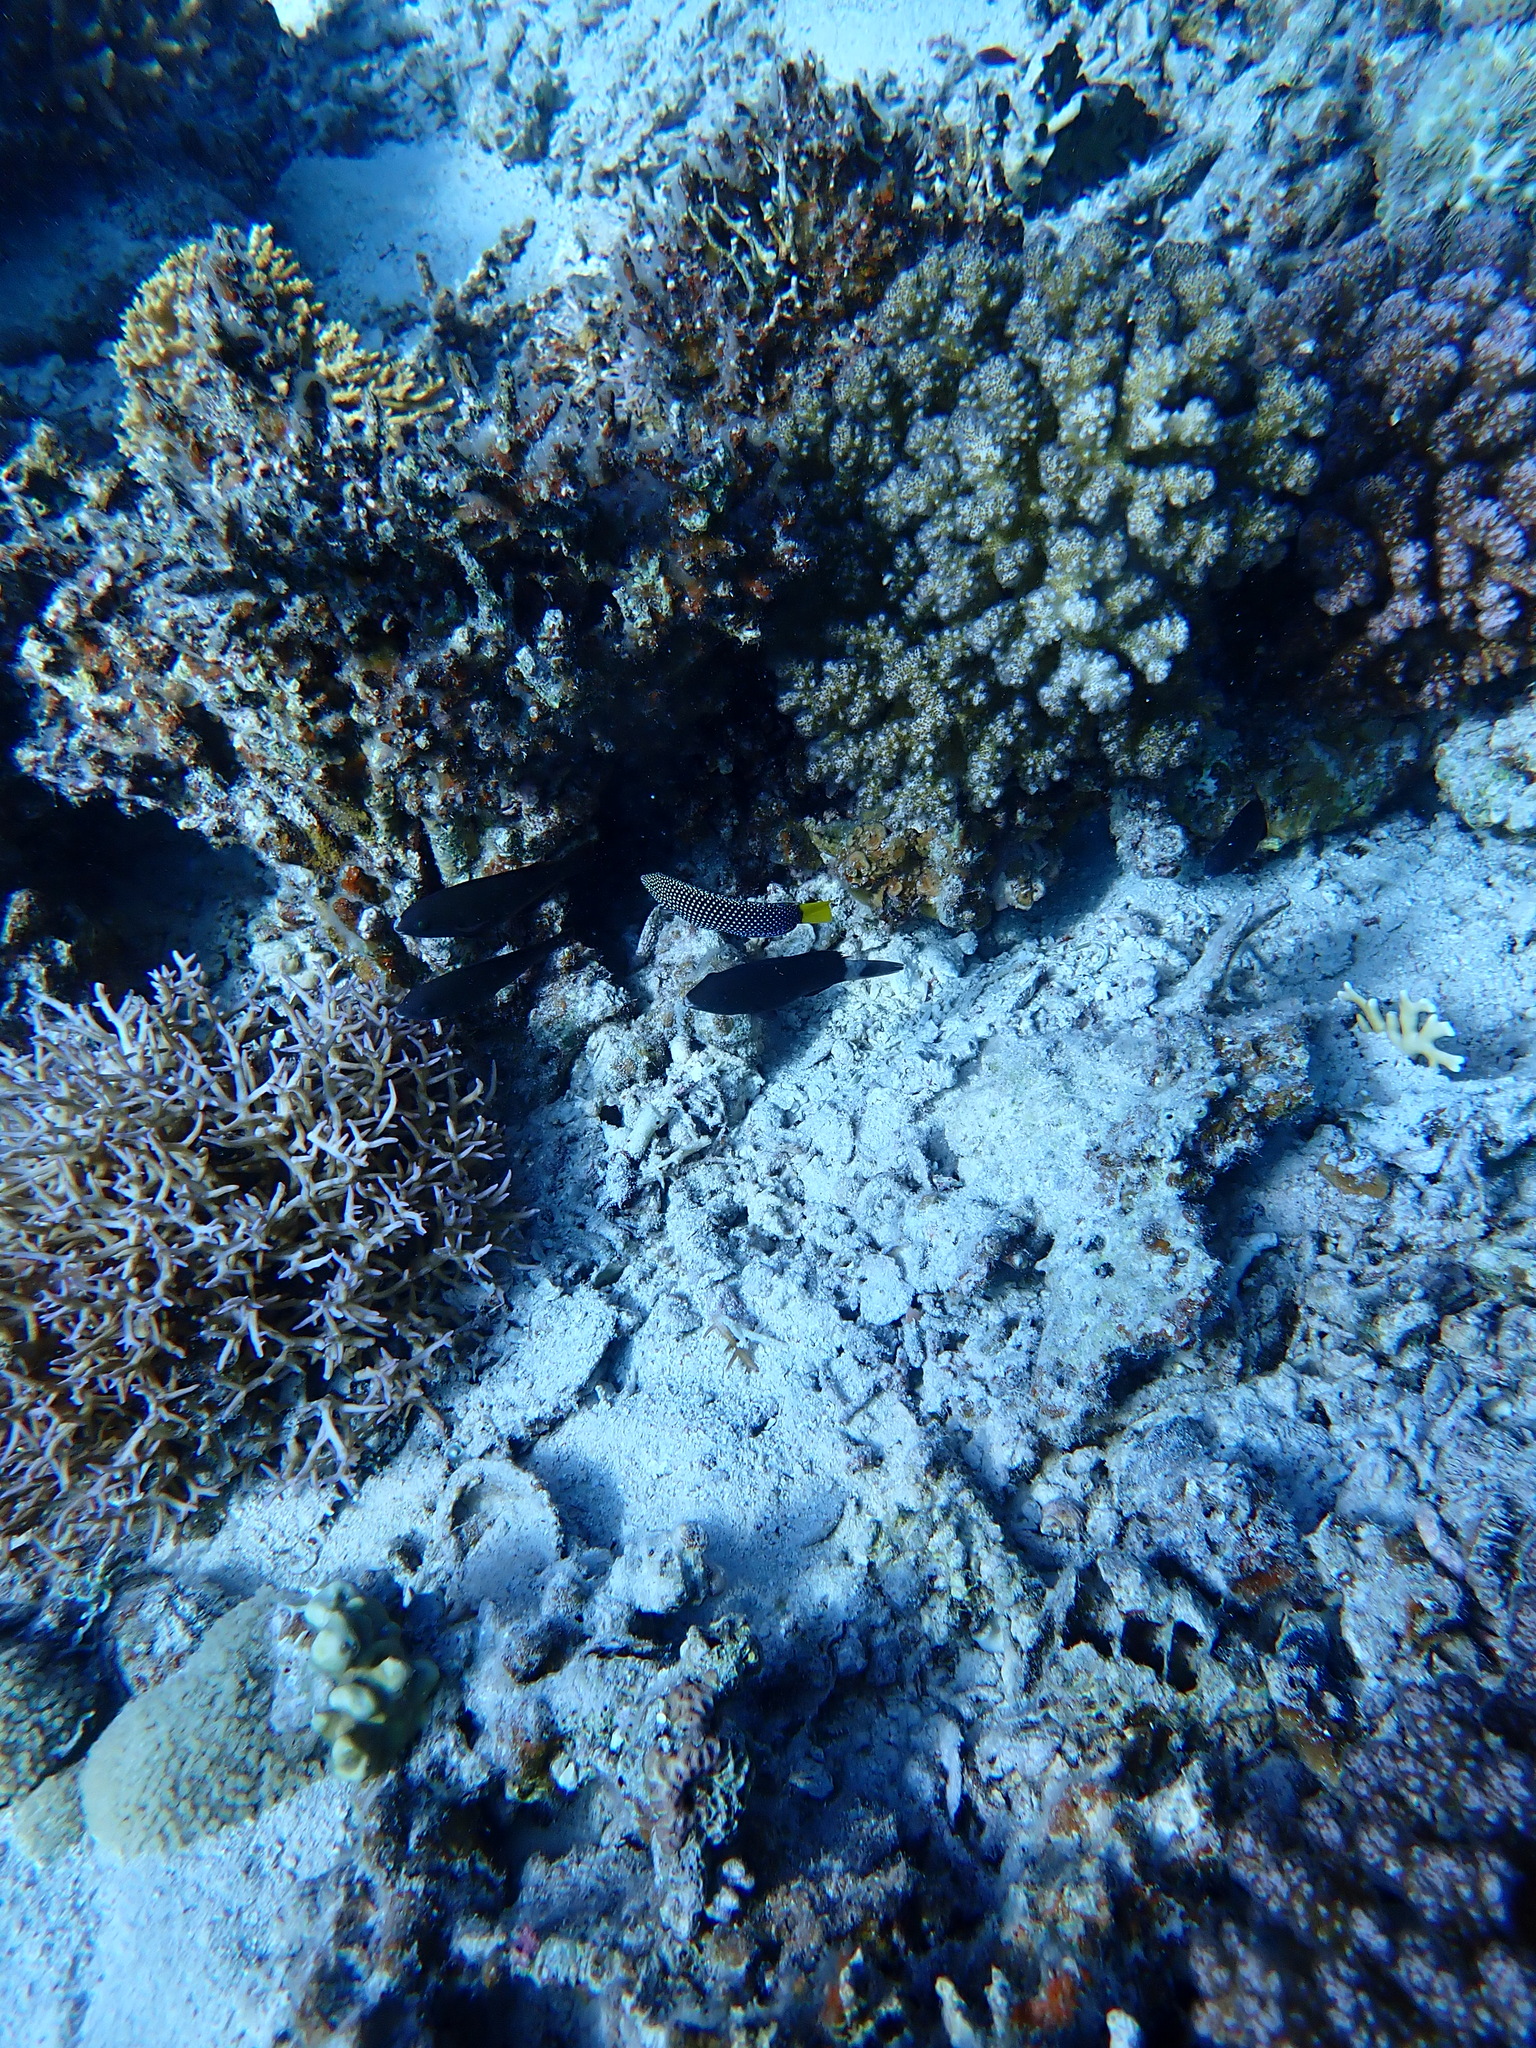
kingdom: Animalia
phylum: Chordata
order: Perciformes
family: Labridae
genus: Anampses
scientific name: Anampses meleagrides
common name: Yellowtail wrasse
